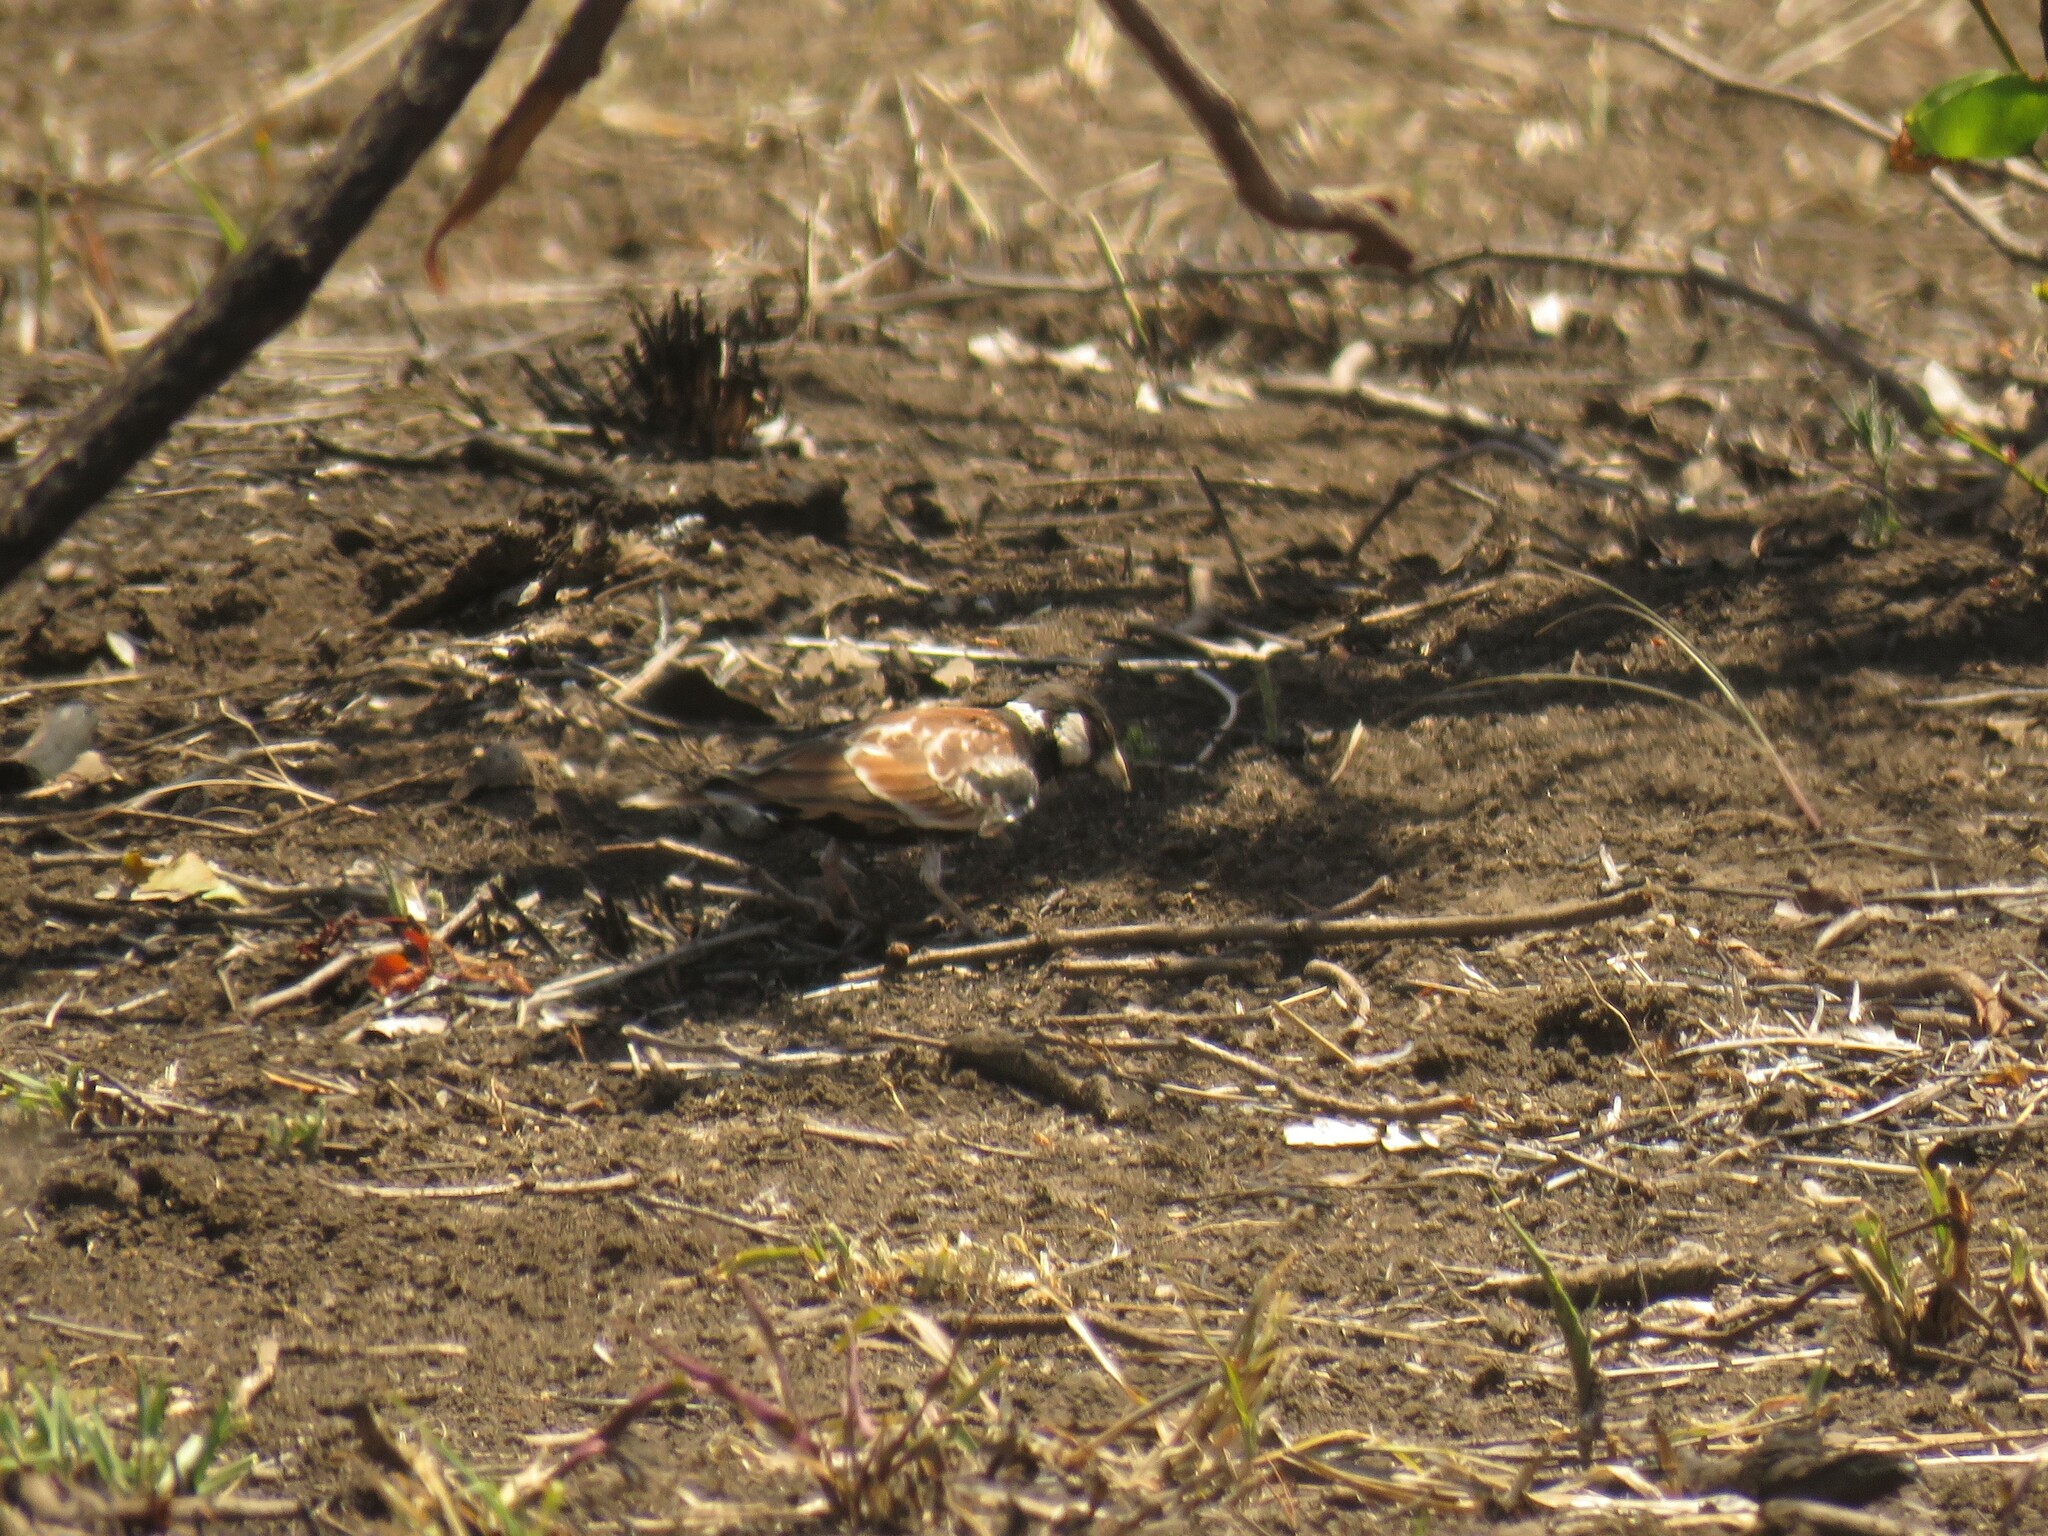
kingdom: Animalia
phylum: Chordata
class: Aves
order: Passeriformes
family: Alaudidae
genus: Eremopterix
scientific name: Eremopterix leucotis
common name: Chestnut-backed sparrow-lark
